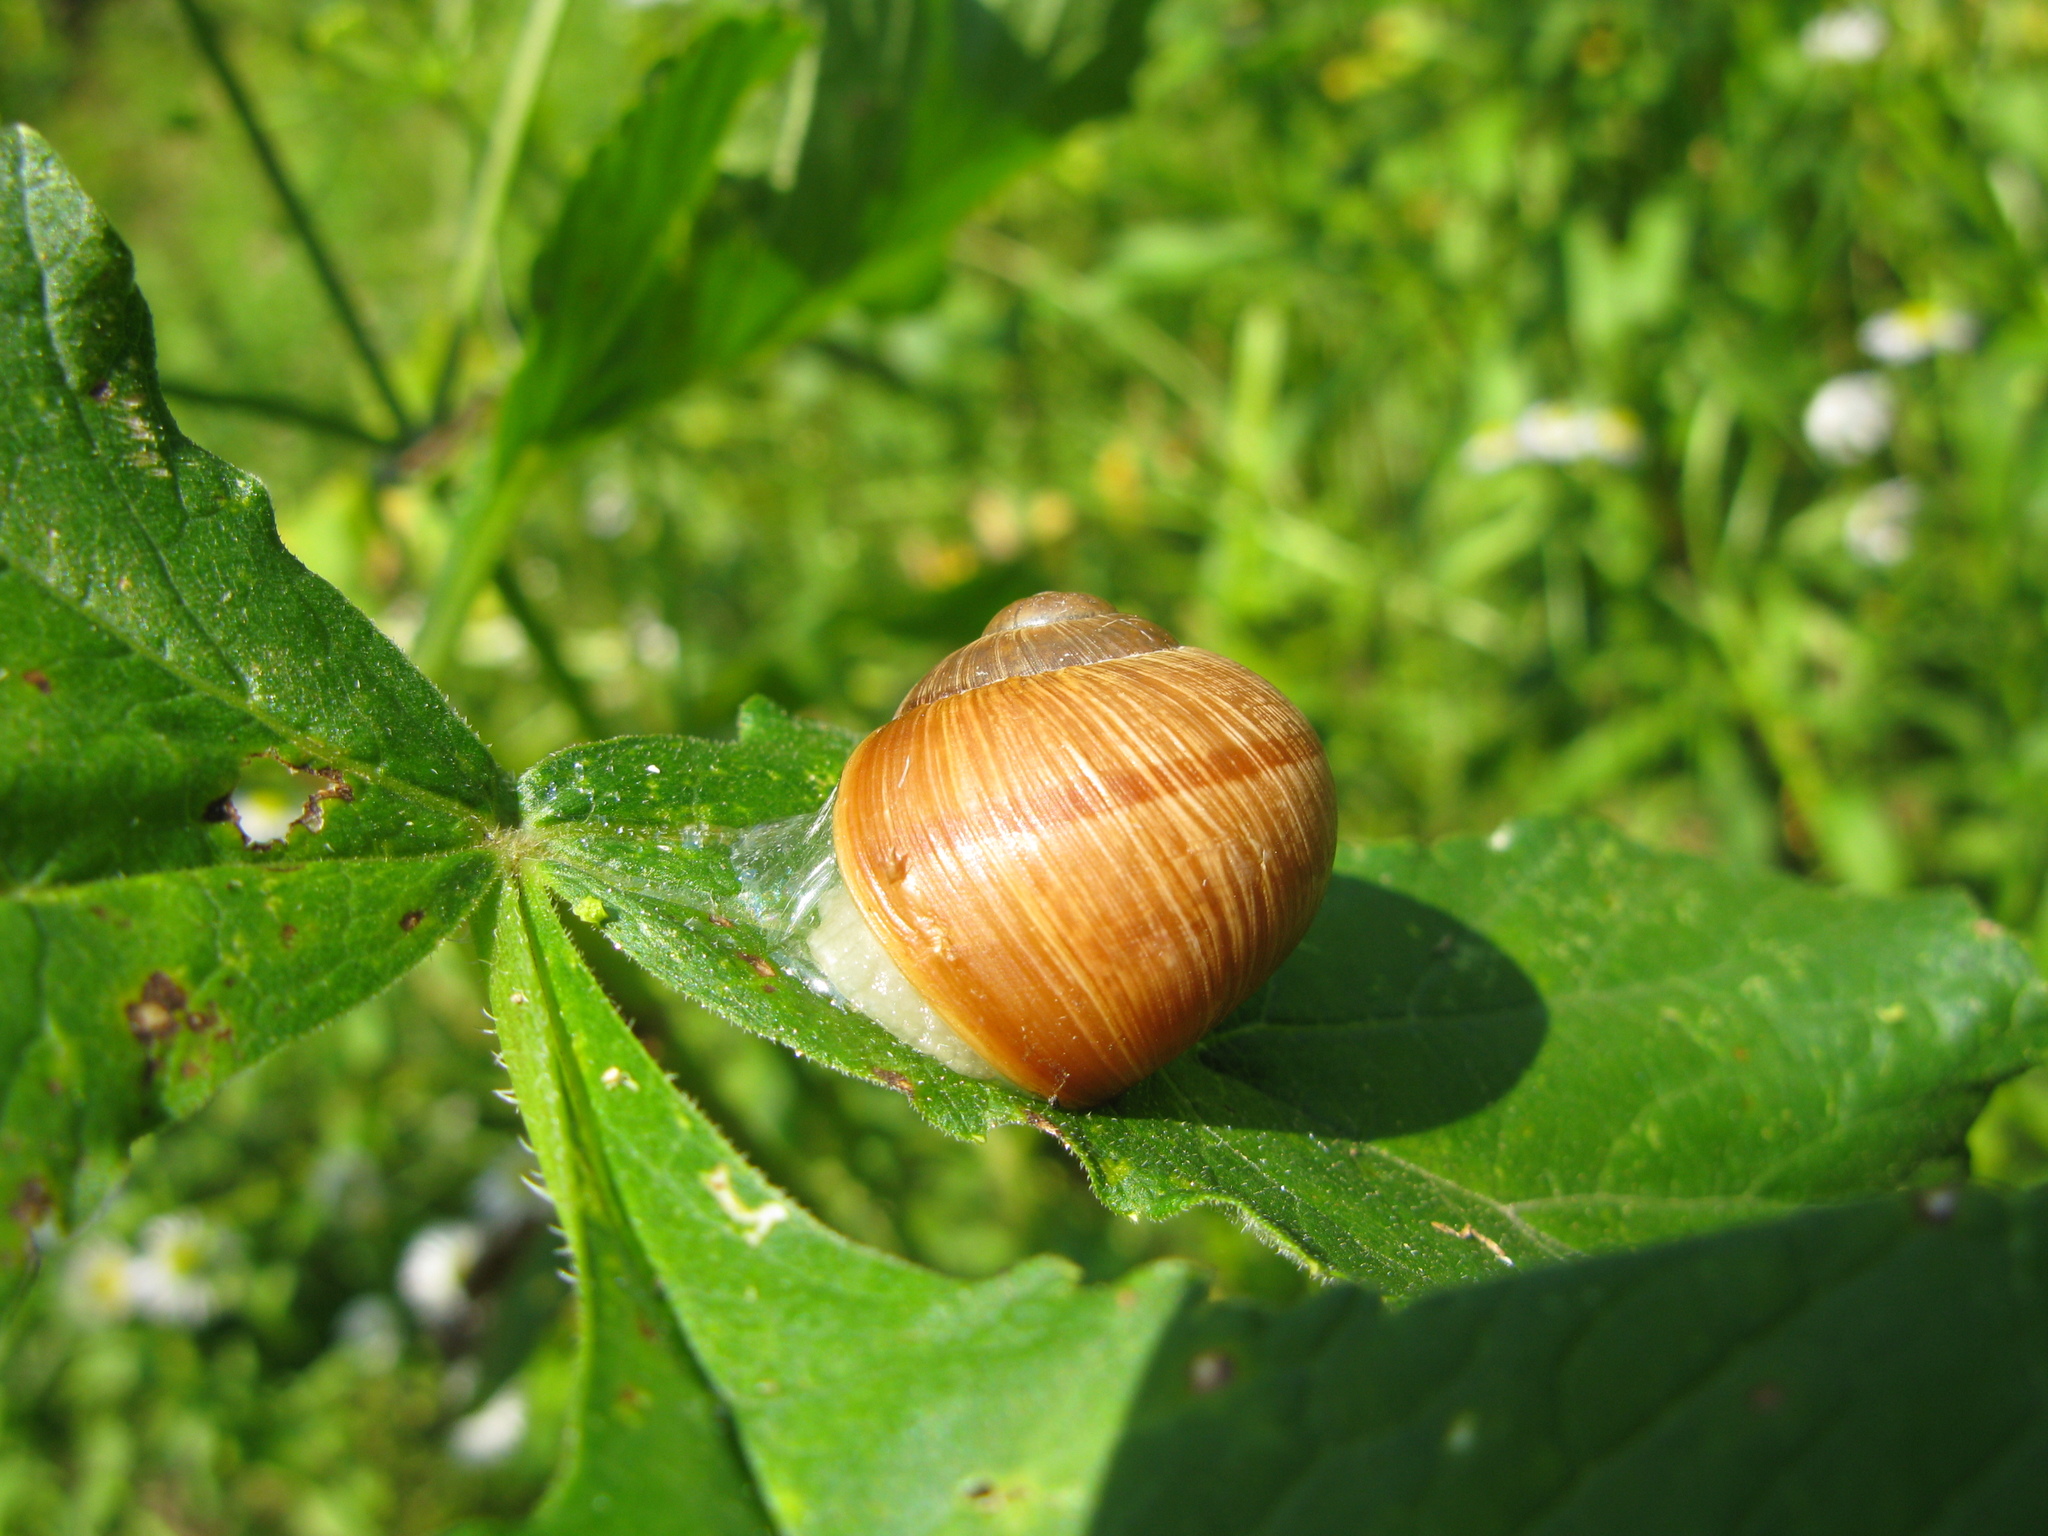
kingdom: Animalia
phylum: Mollusca
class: Gastropoda
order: Stylommatophora
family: Helicidae
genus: Helix
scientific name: Helix pomatia
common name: Roman snail
